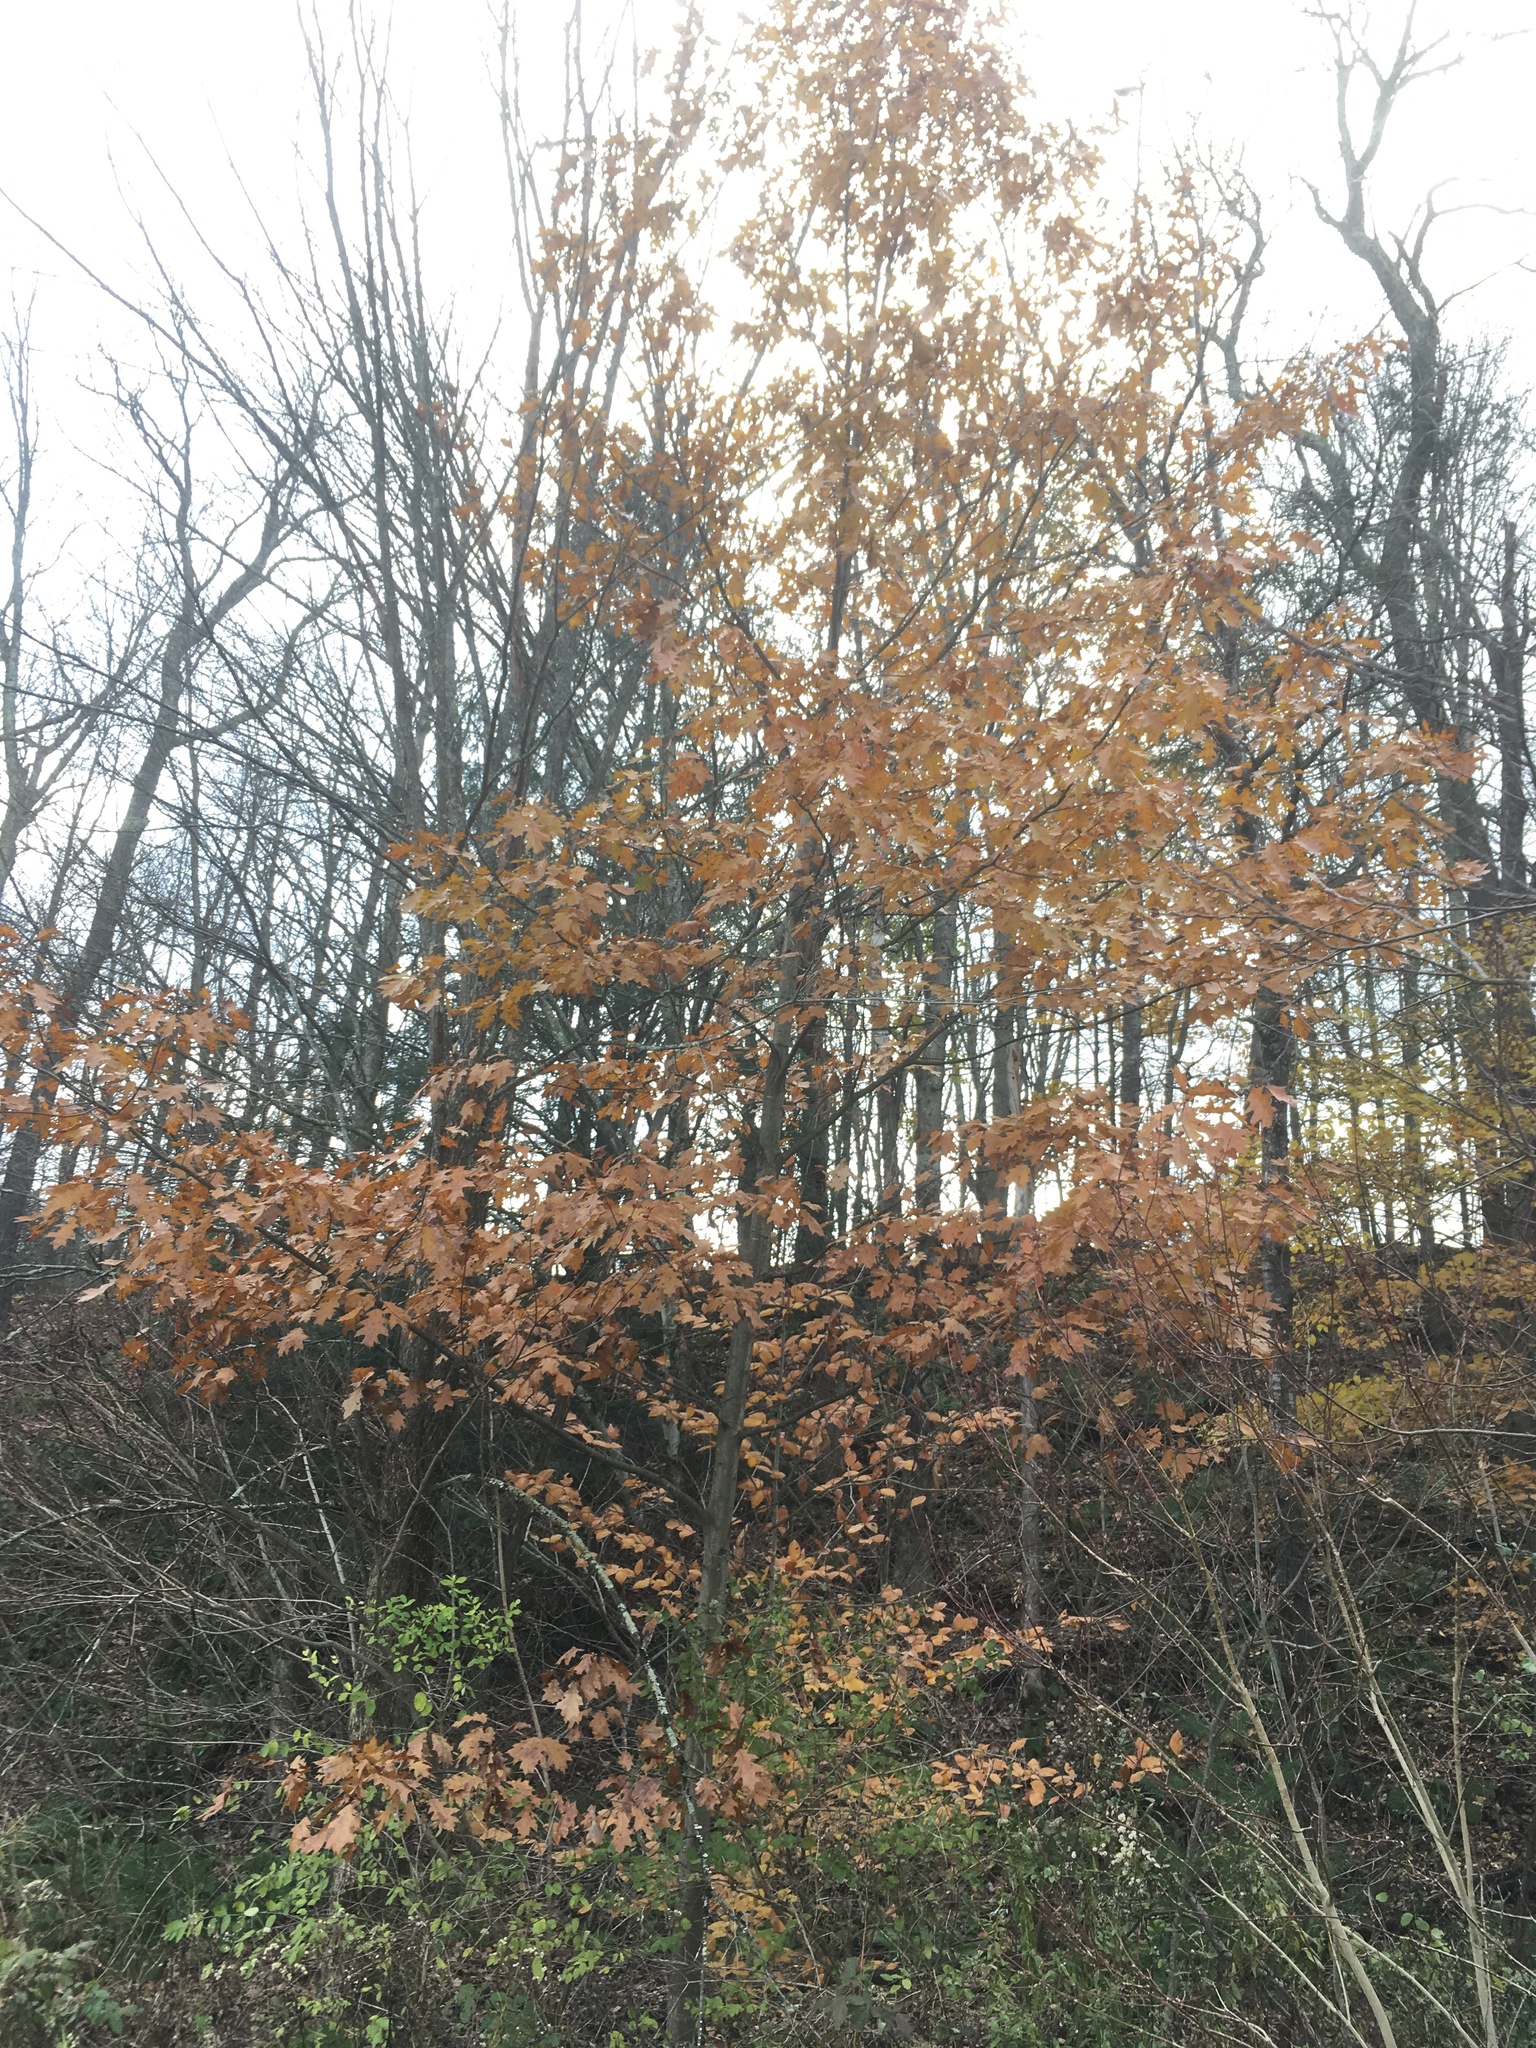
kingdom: Plantae
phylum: Tracheophyta
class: Magnoliopsida
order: Fagales
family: Fagaceae
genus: Quercus
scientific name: Quercus rubra
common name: Red oak
